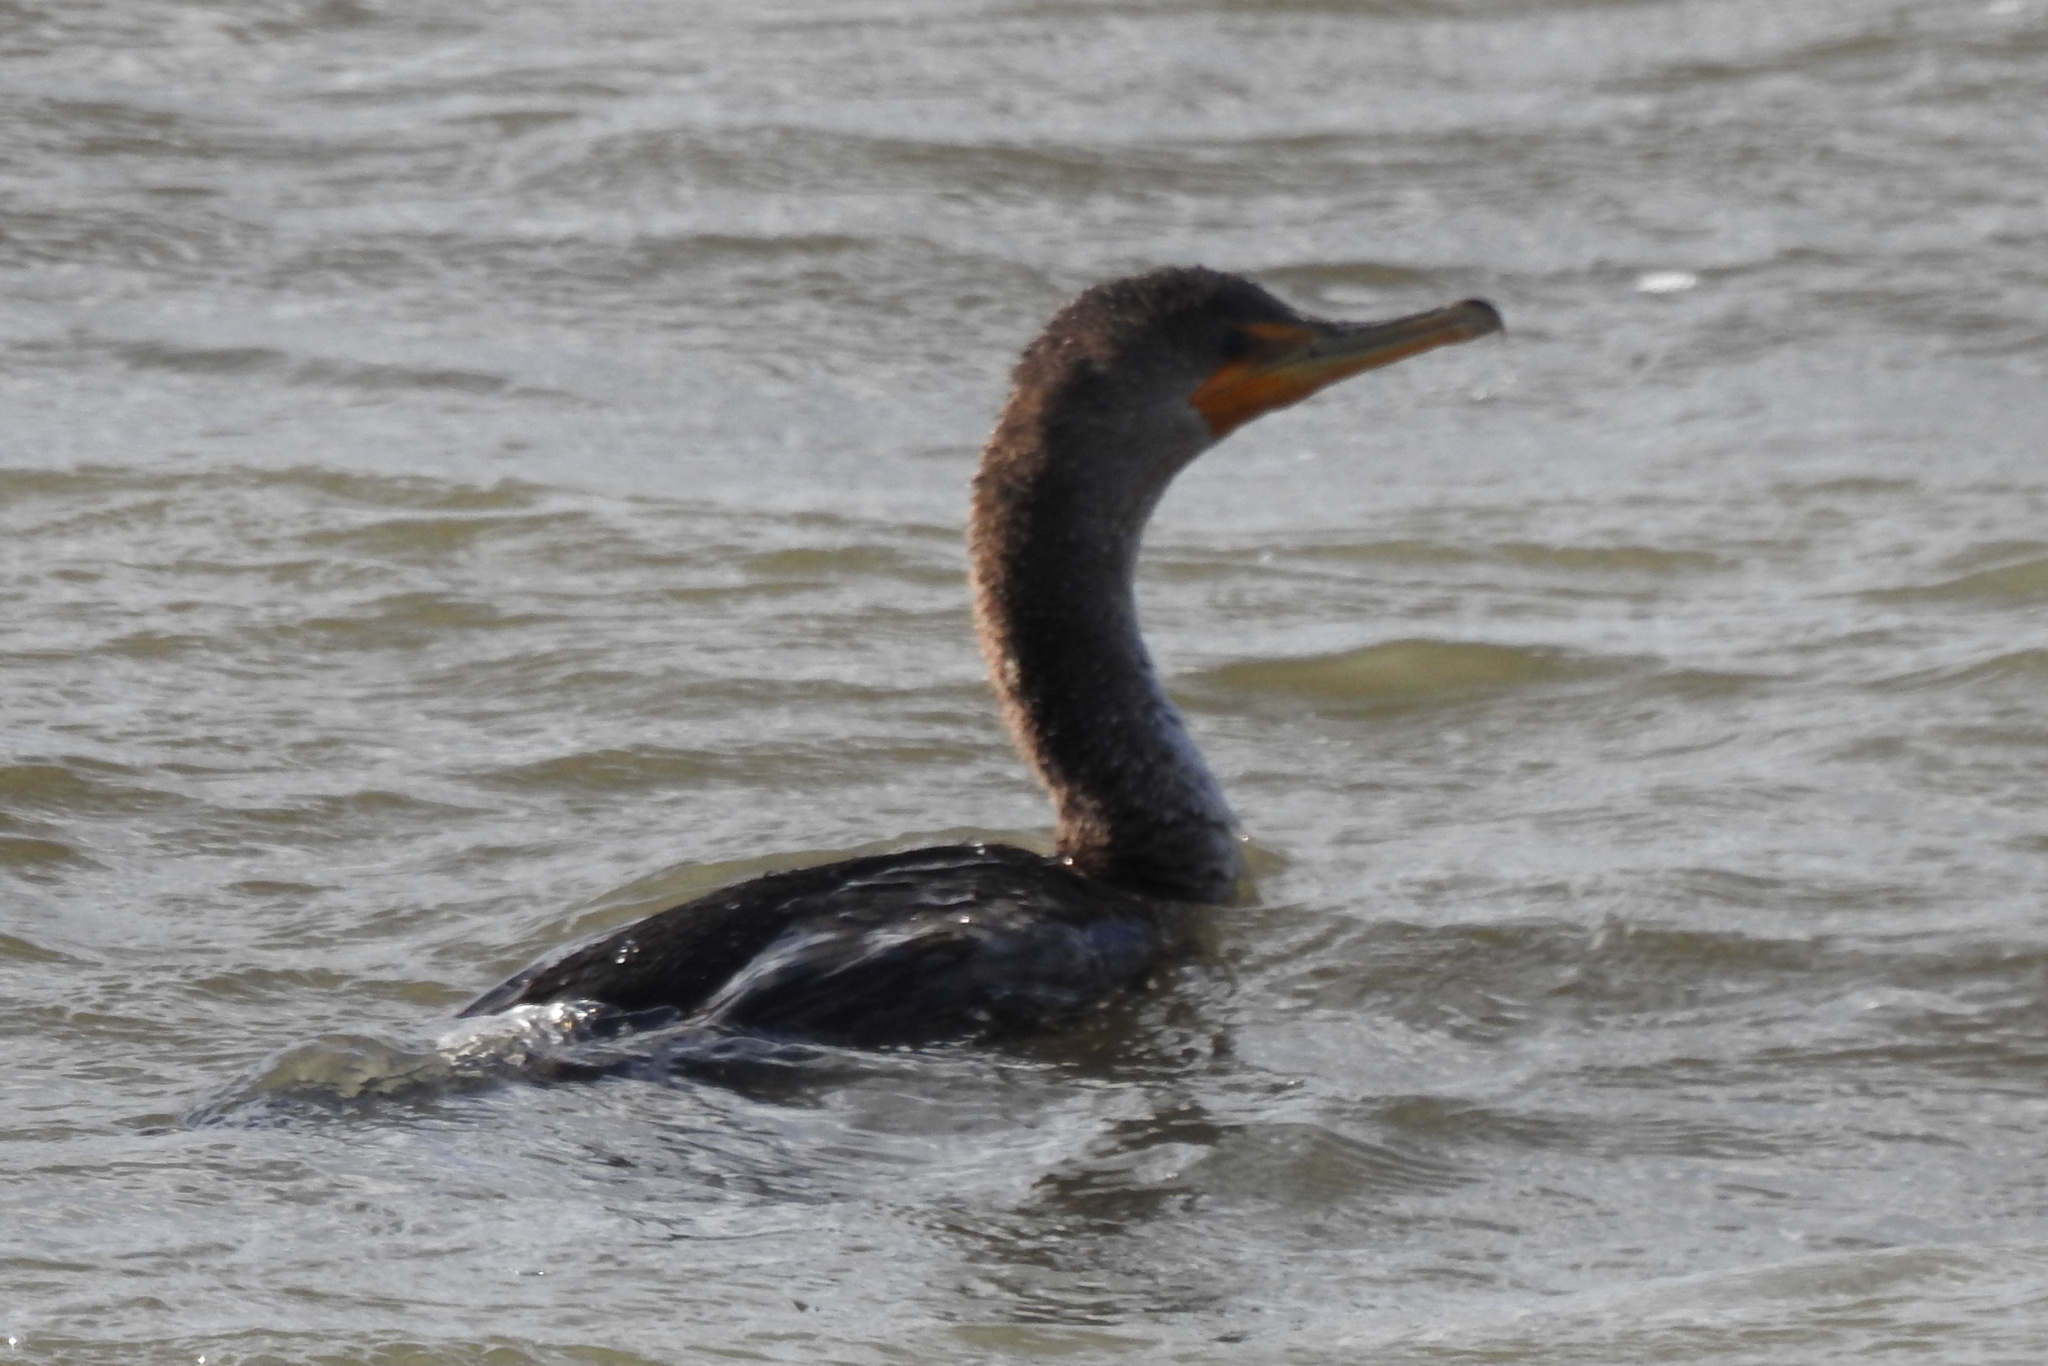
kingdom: Animalia
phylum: Chordata
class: Aves
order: Suliformes
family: Phalacrocoracidae
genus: Phalacrocorax
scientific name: Phalacrocorax auritus
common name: Double-crested cormorant
